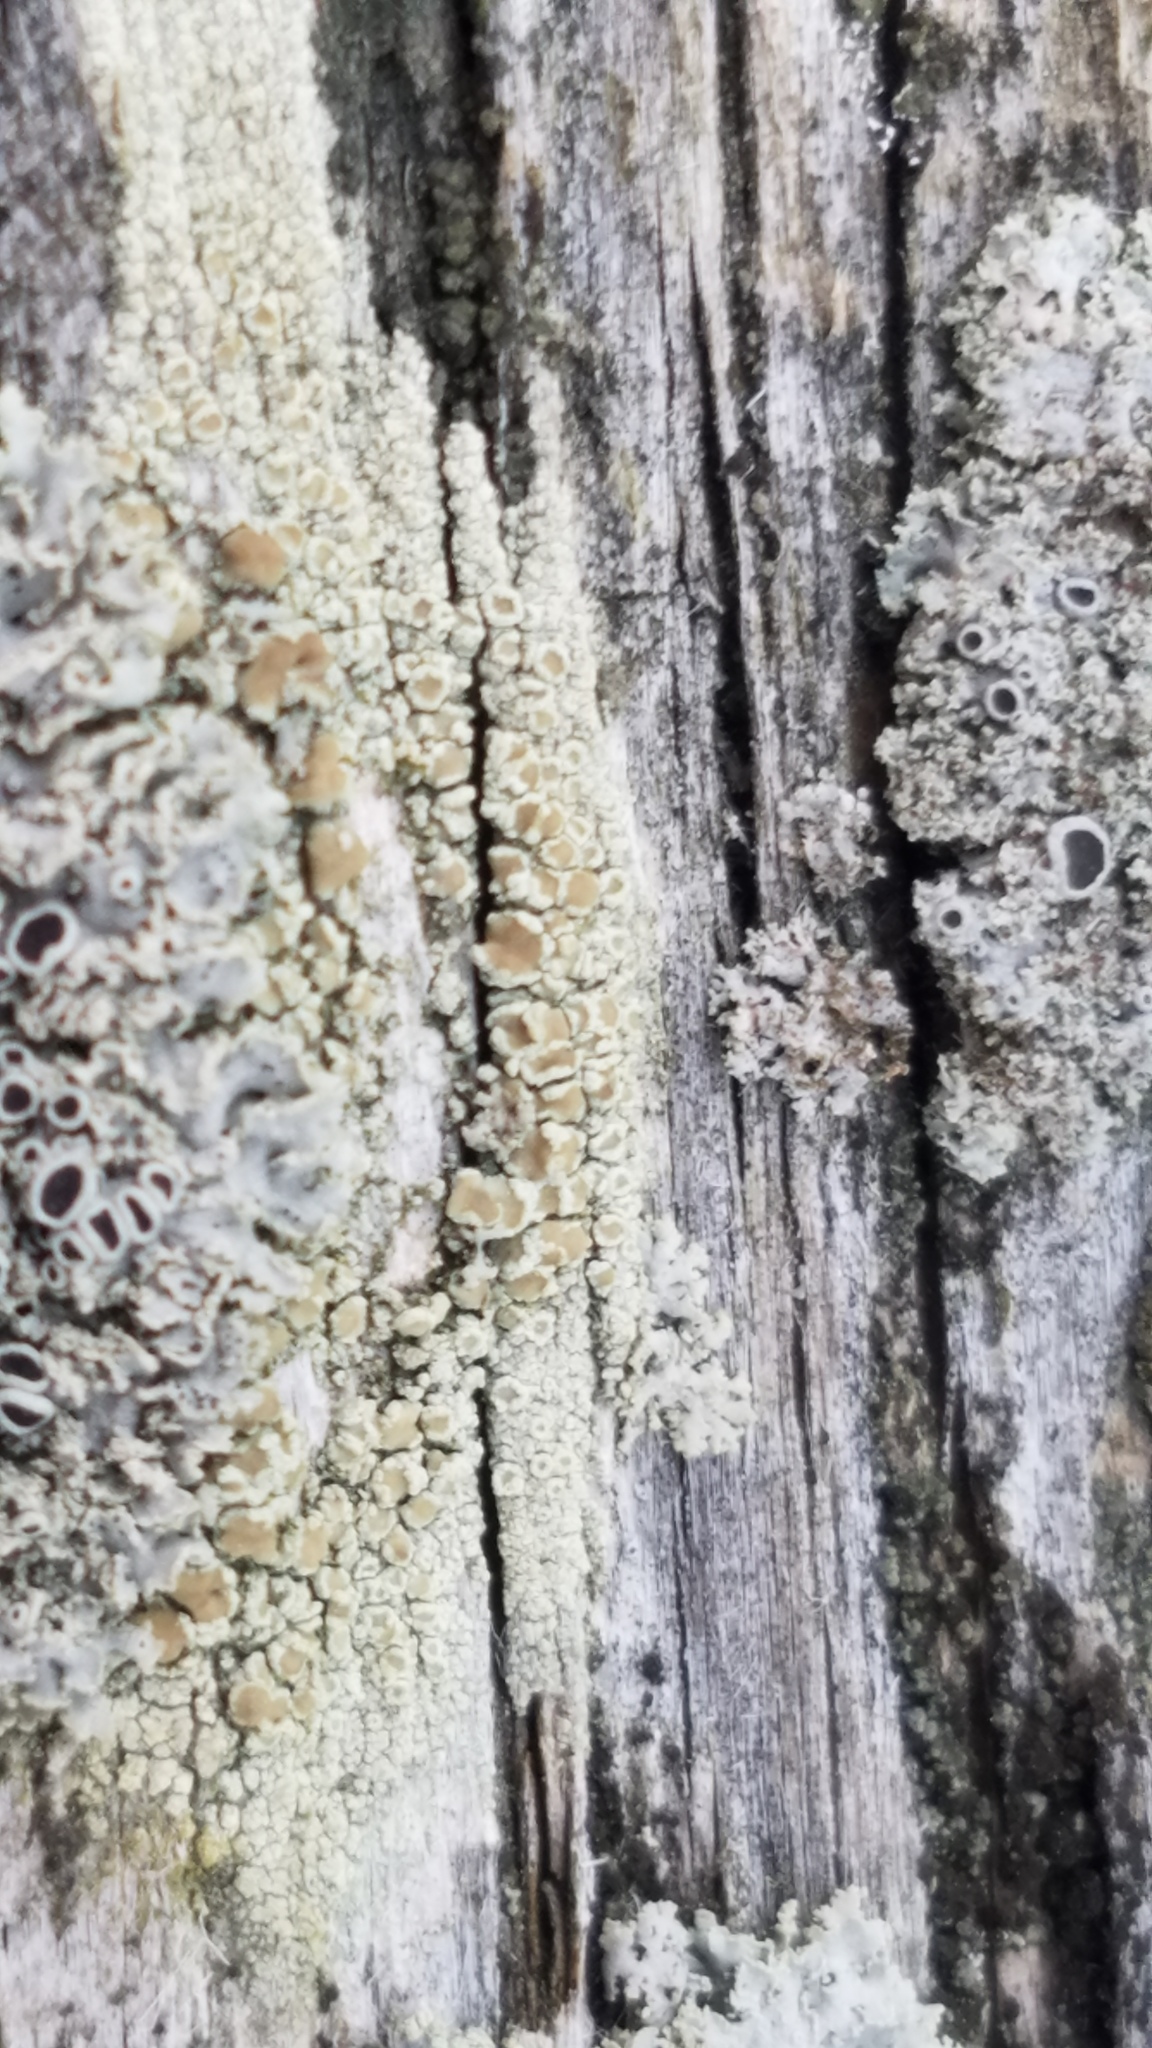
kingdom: Fungi
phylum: Ascomycota
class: Lecanoromycetes
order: Lecanorales
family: Lecanoraceae
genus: Lecanora
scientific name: Lecanora strobilina
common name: Mealy rim-lichen
